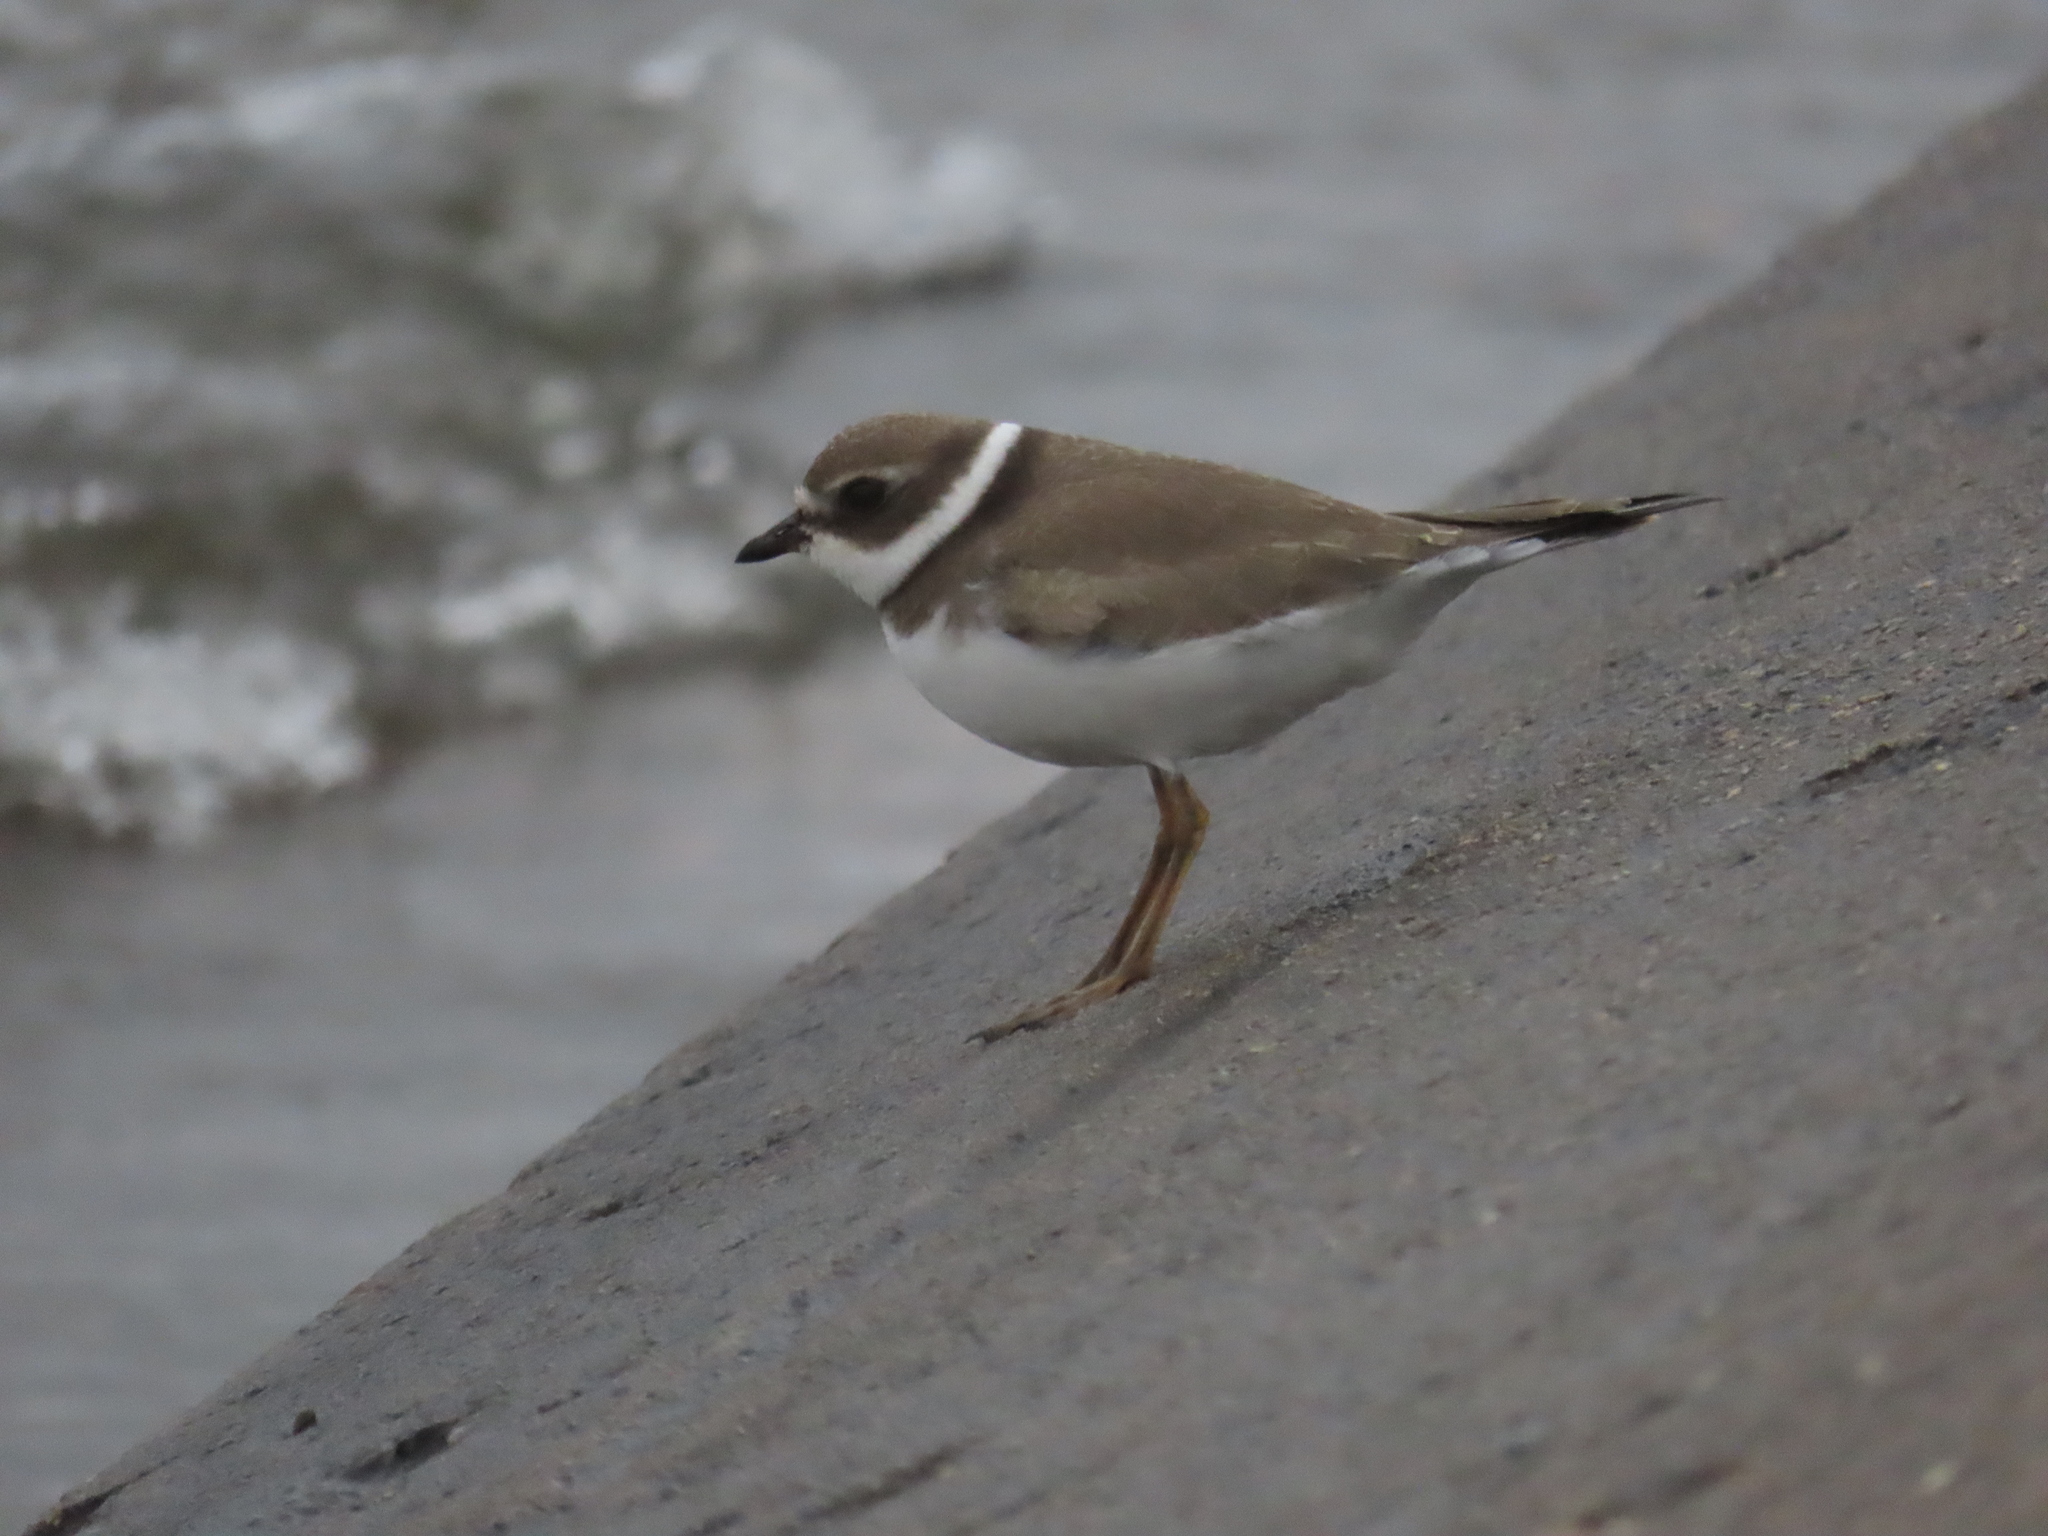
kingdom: Animalia
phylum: Chordata
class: Aves
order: Charadriiformes
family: Charadriidae
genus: Charadrius
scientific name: Charadrius semipalmatus
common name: Semipalmated plover
